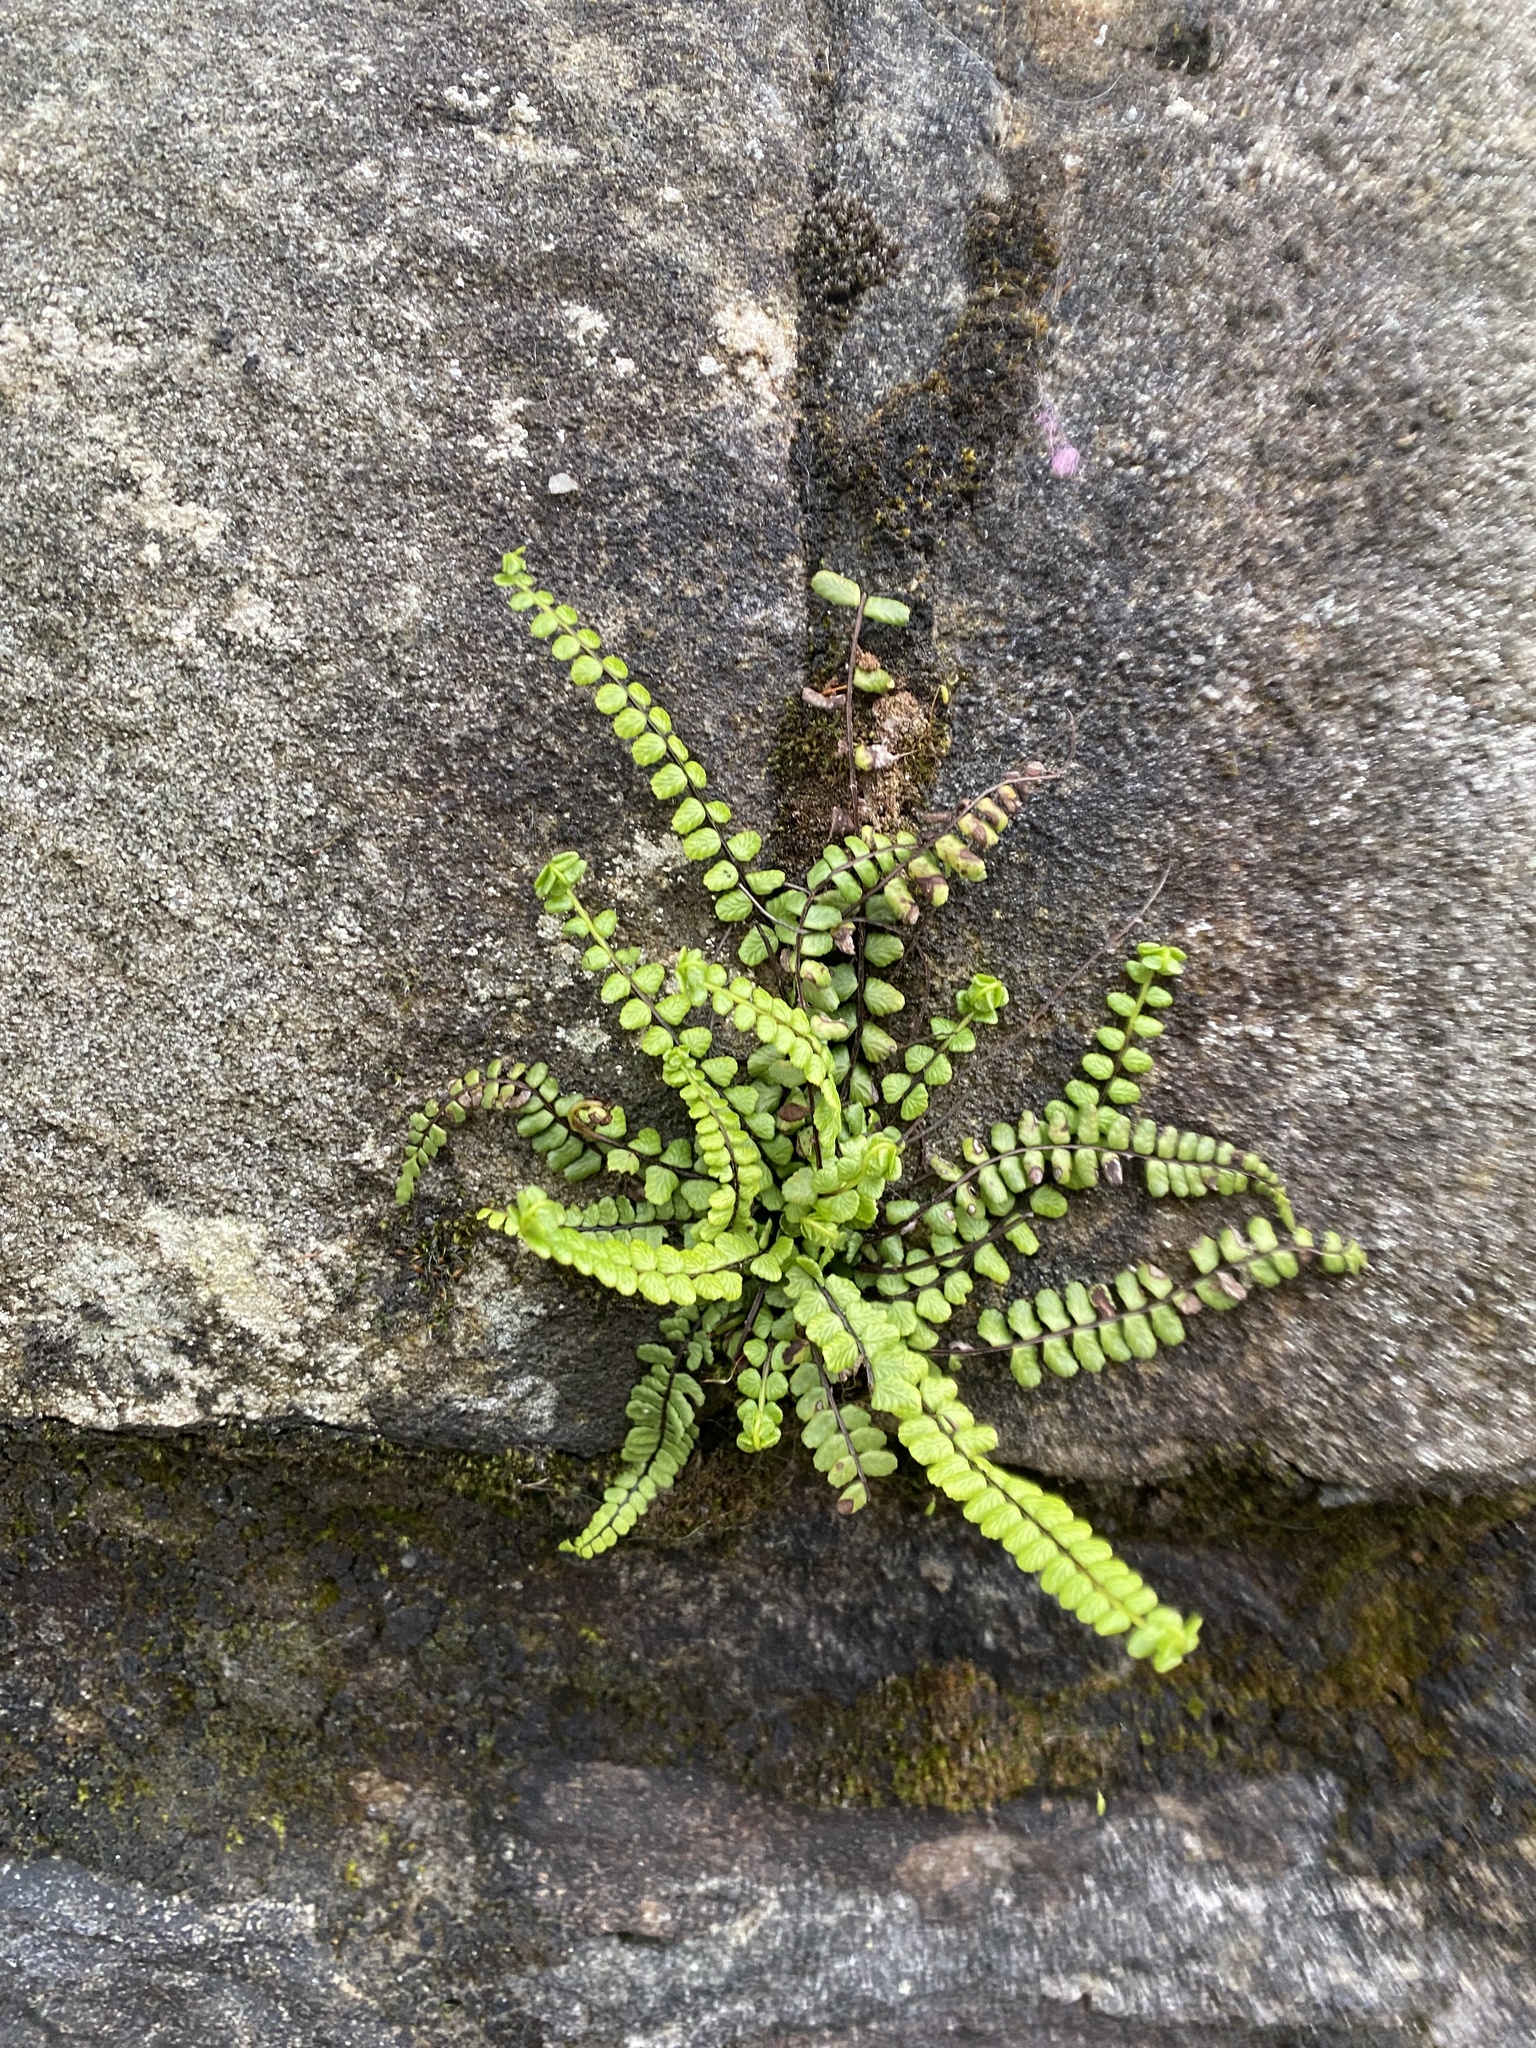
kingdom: Plantae
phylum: Tracheophyta
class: Polypodiopsida
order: Polypodiales
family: Aspleniaceae
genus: Asplenium
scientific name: Asplenium trichomanes
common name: Maidenhair spleenwort
